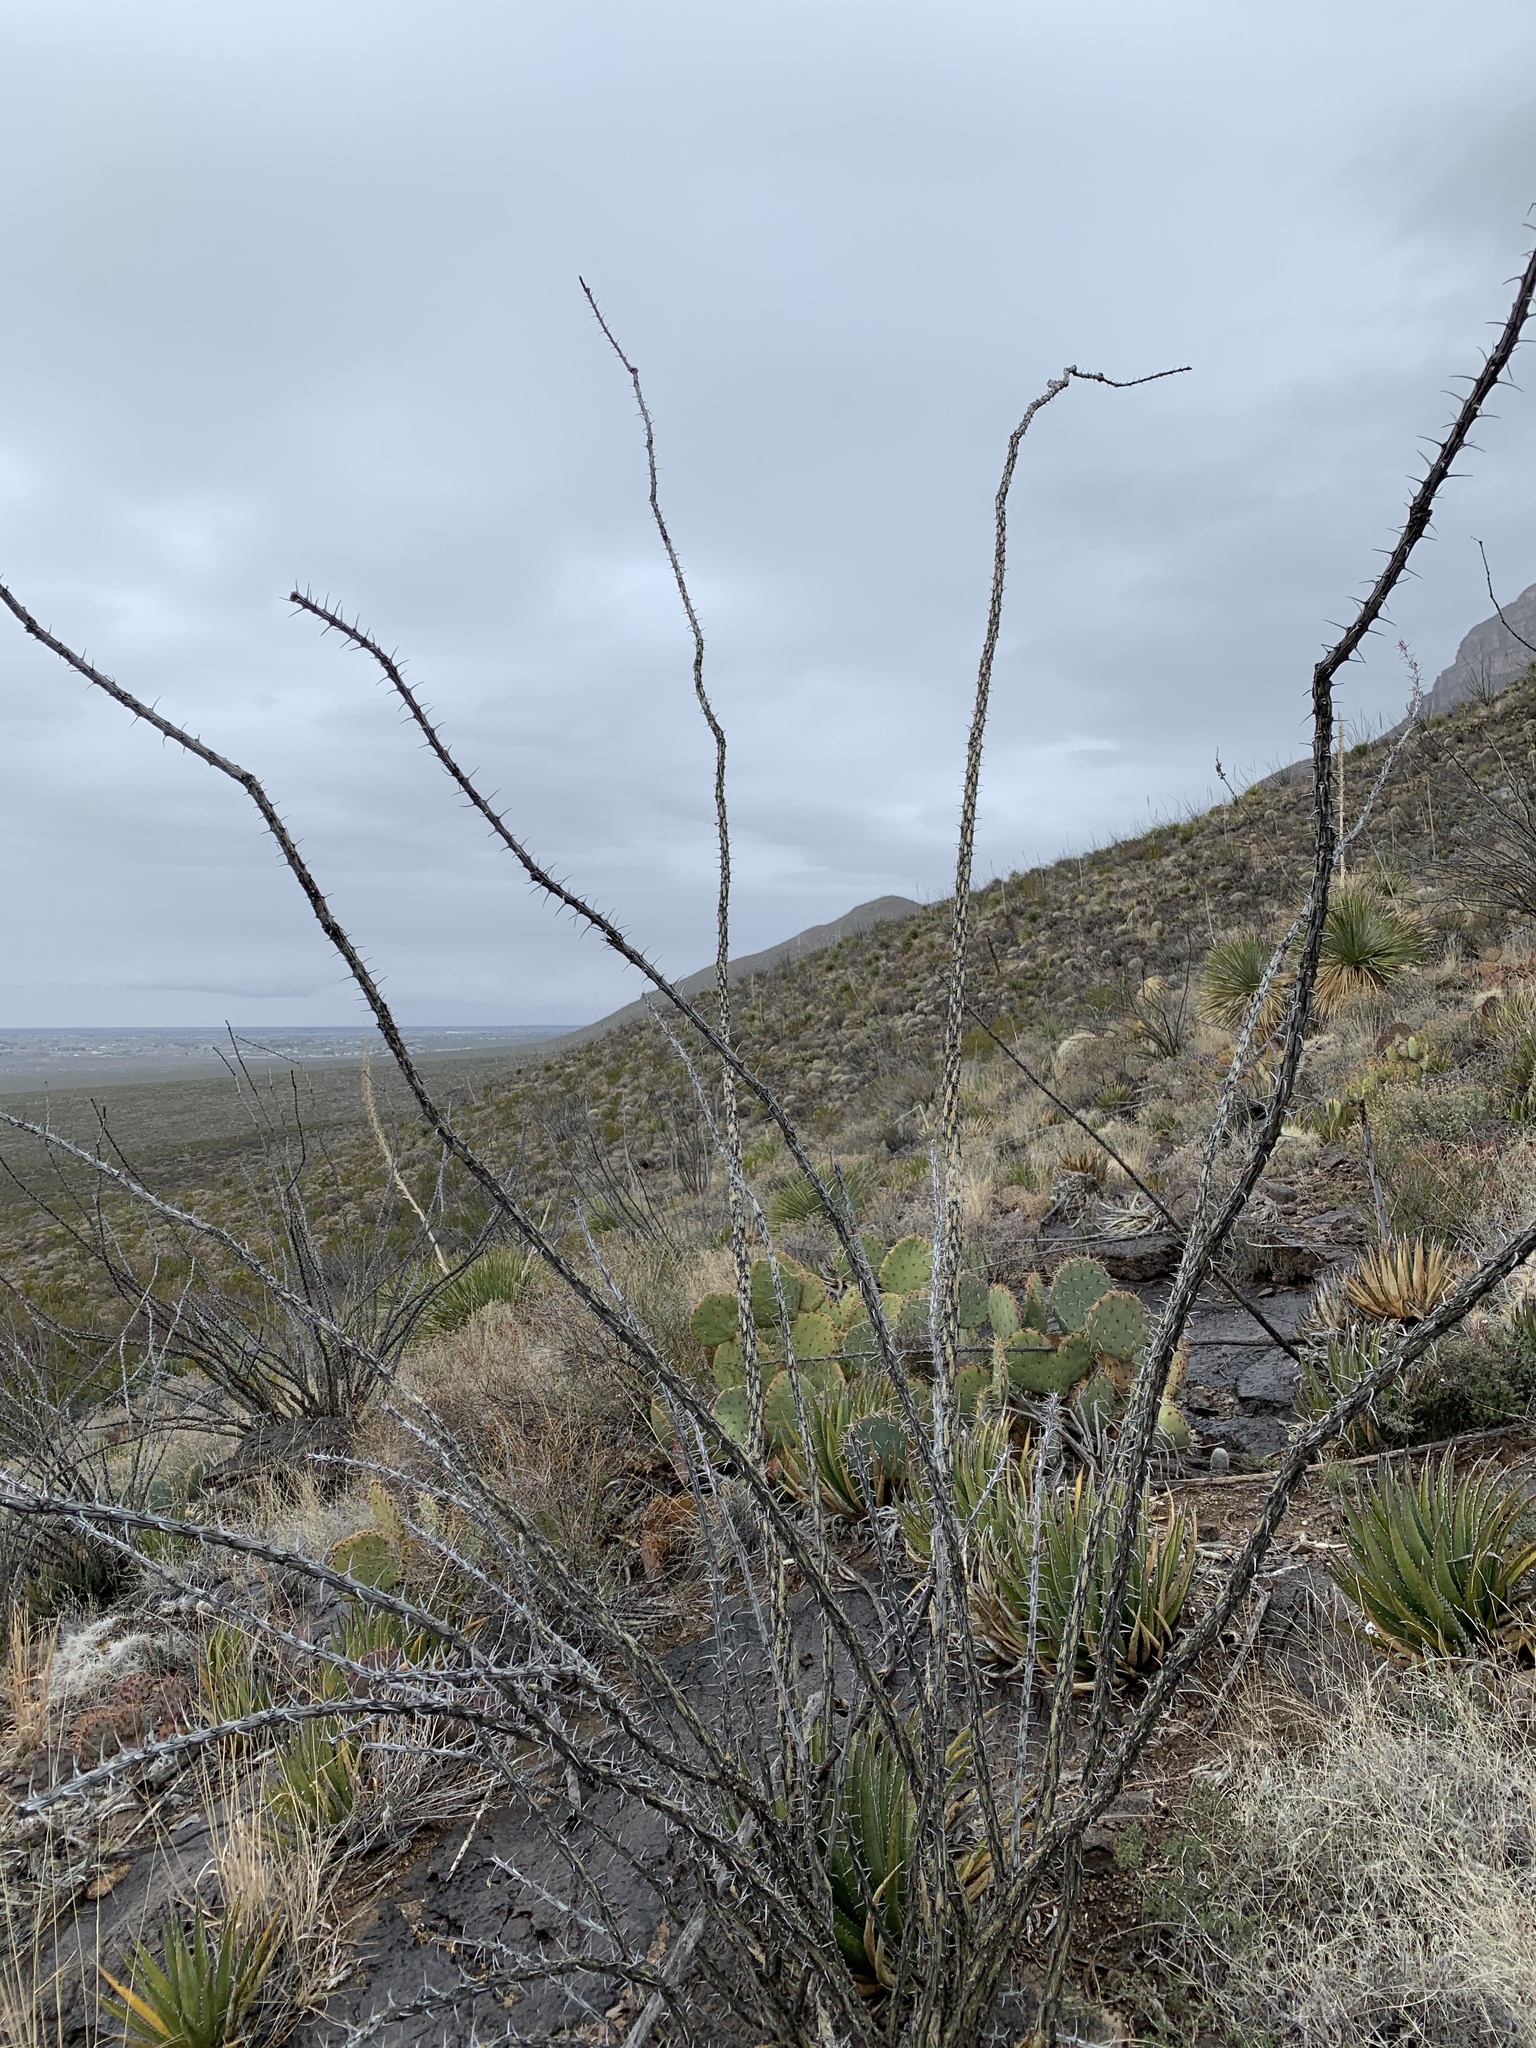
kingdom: Plantae
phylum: Tracheophyta
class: Magnoliopsida
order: Ericales
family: Fouquieriaceae
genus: Fouquieria
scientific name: Fouquieria splendens
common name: Vine-cactus
